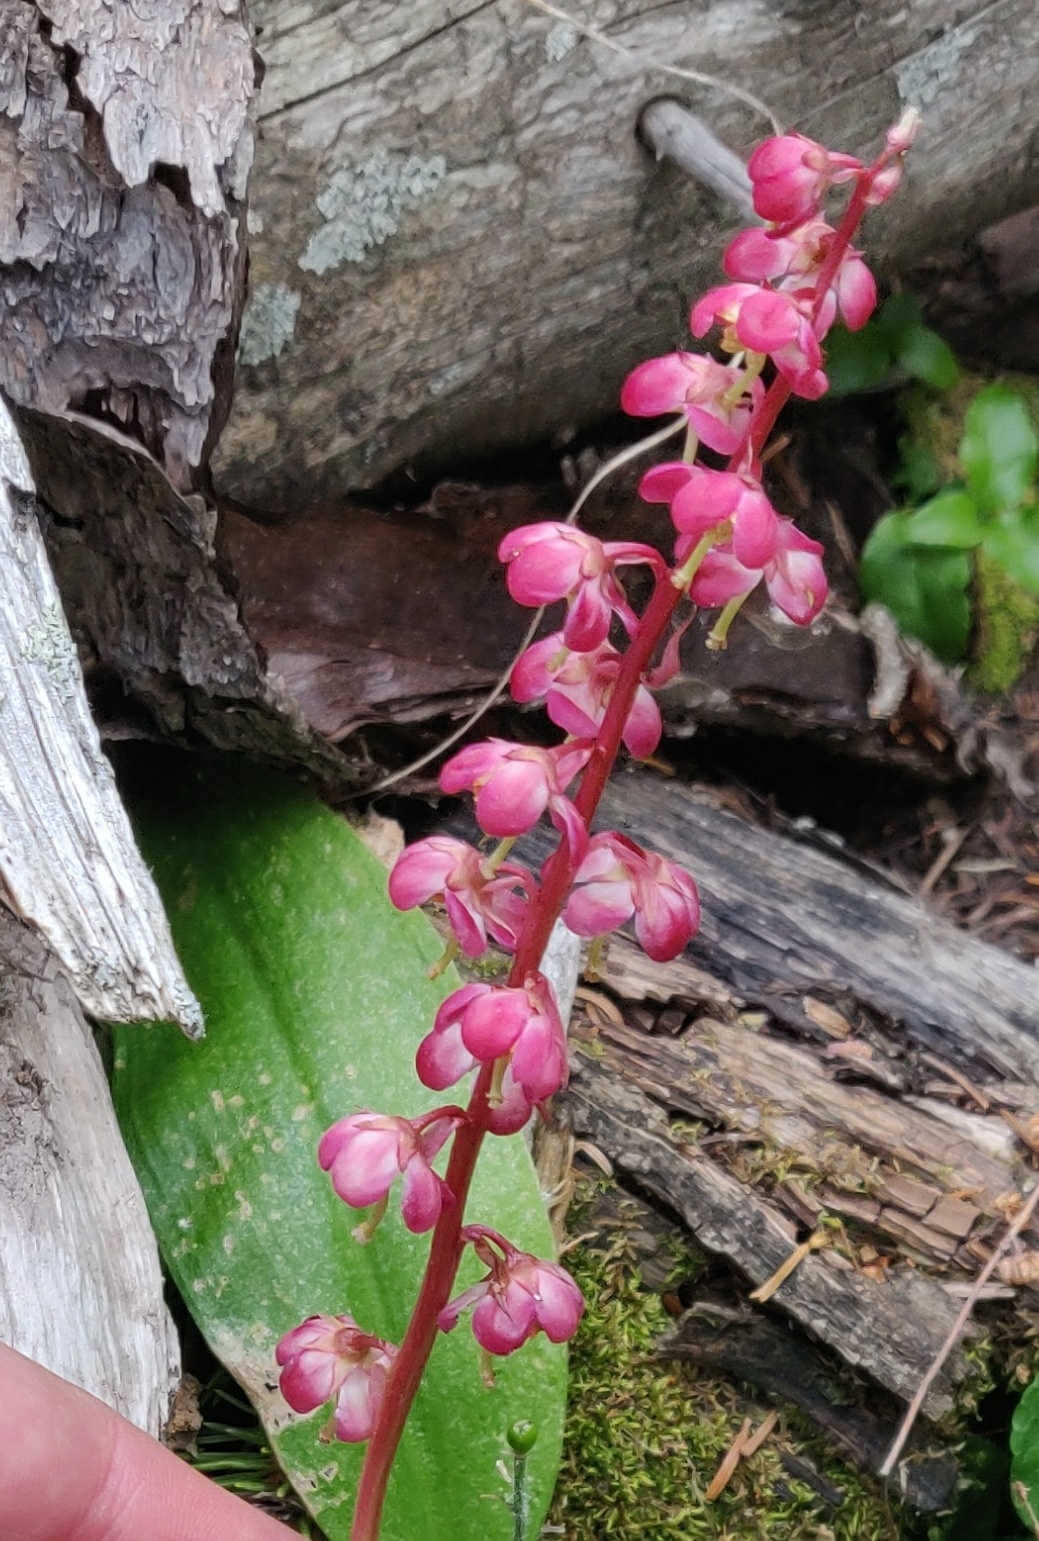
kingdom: Plantae
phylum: Tracheophyta
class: Magnoliopsida
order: Ericales
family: Ericaceae
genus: Pyrola
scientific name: Pyrola asarifolia
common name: Bog wintergreen
